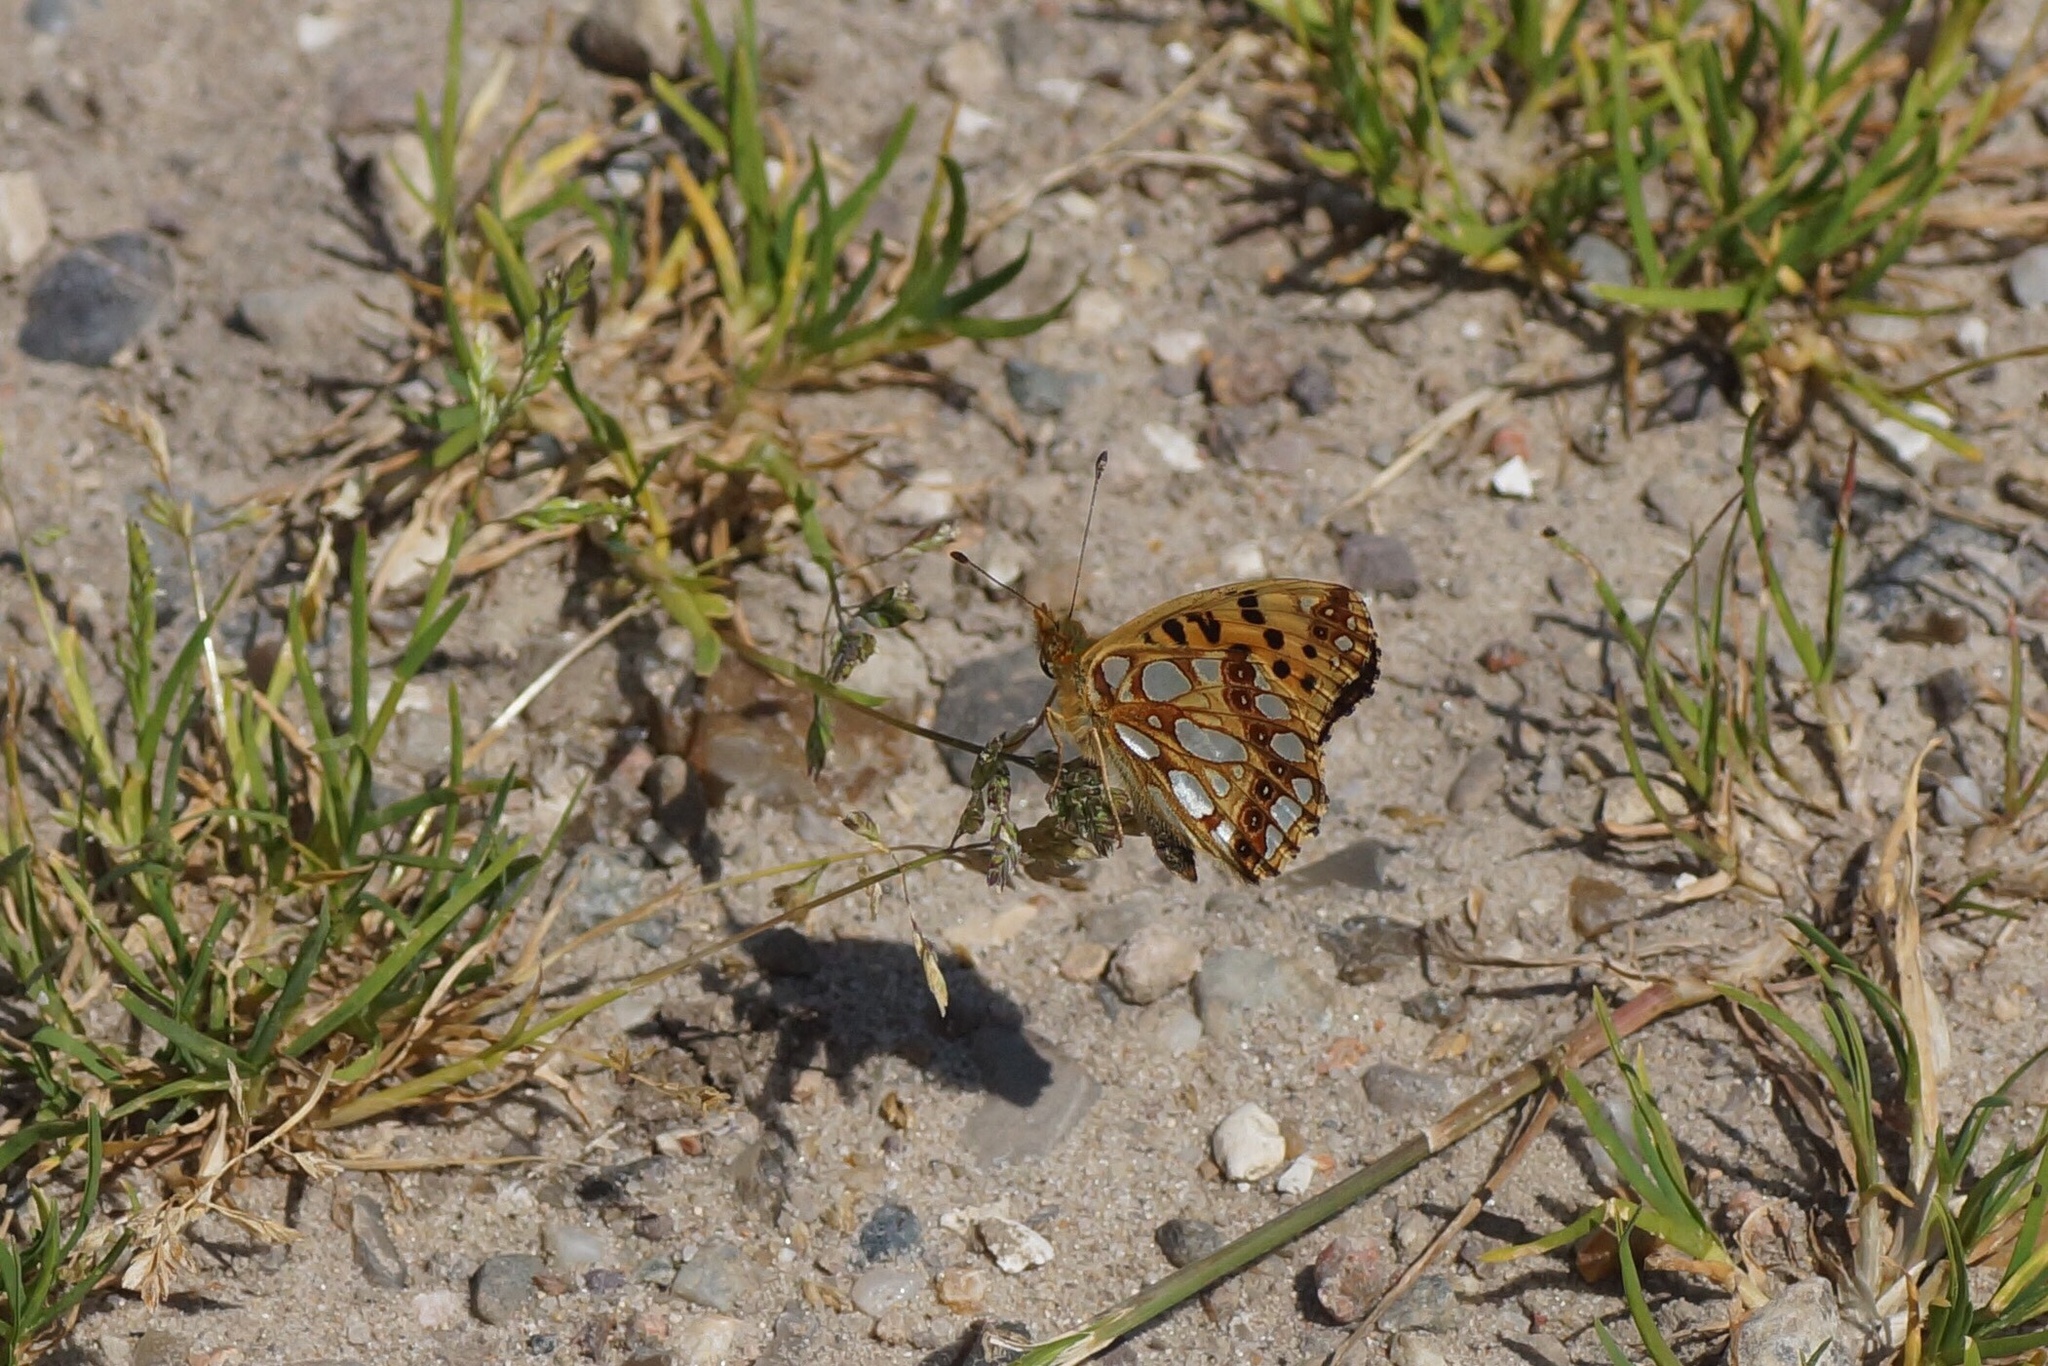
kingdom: Animalia
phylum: Arthropoda
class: Insecta
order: Lepidoptera
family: Nymphalidae
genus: Issoria
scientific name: Issoria lathonia
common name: Queen of spain fritillary
